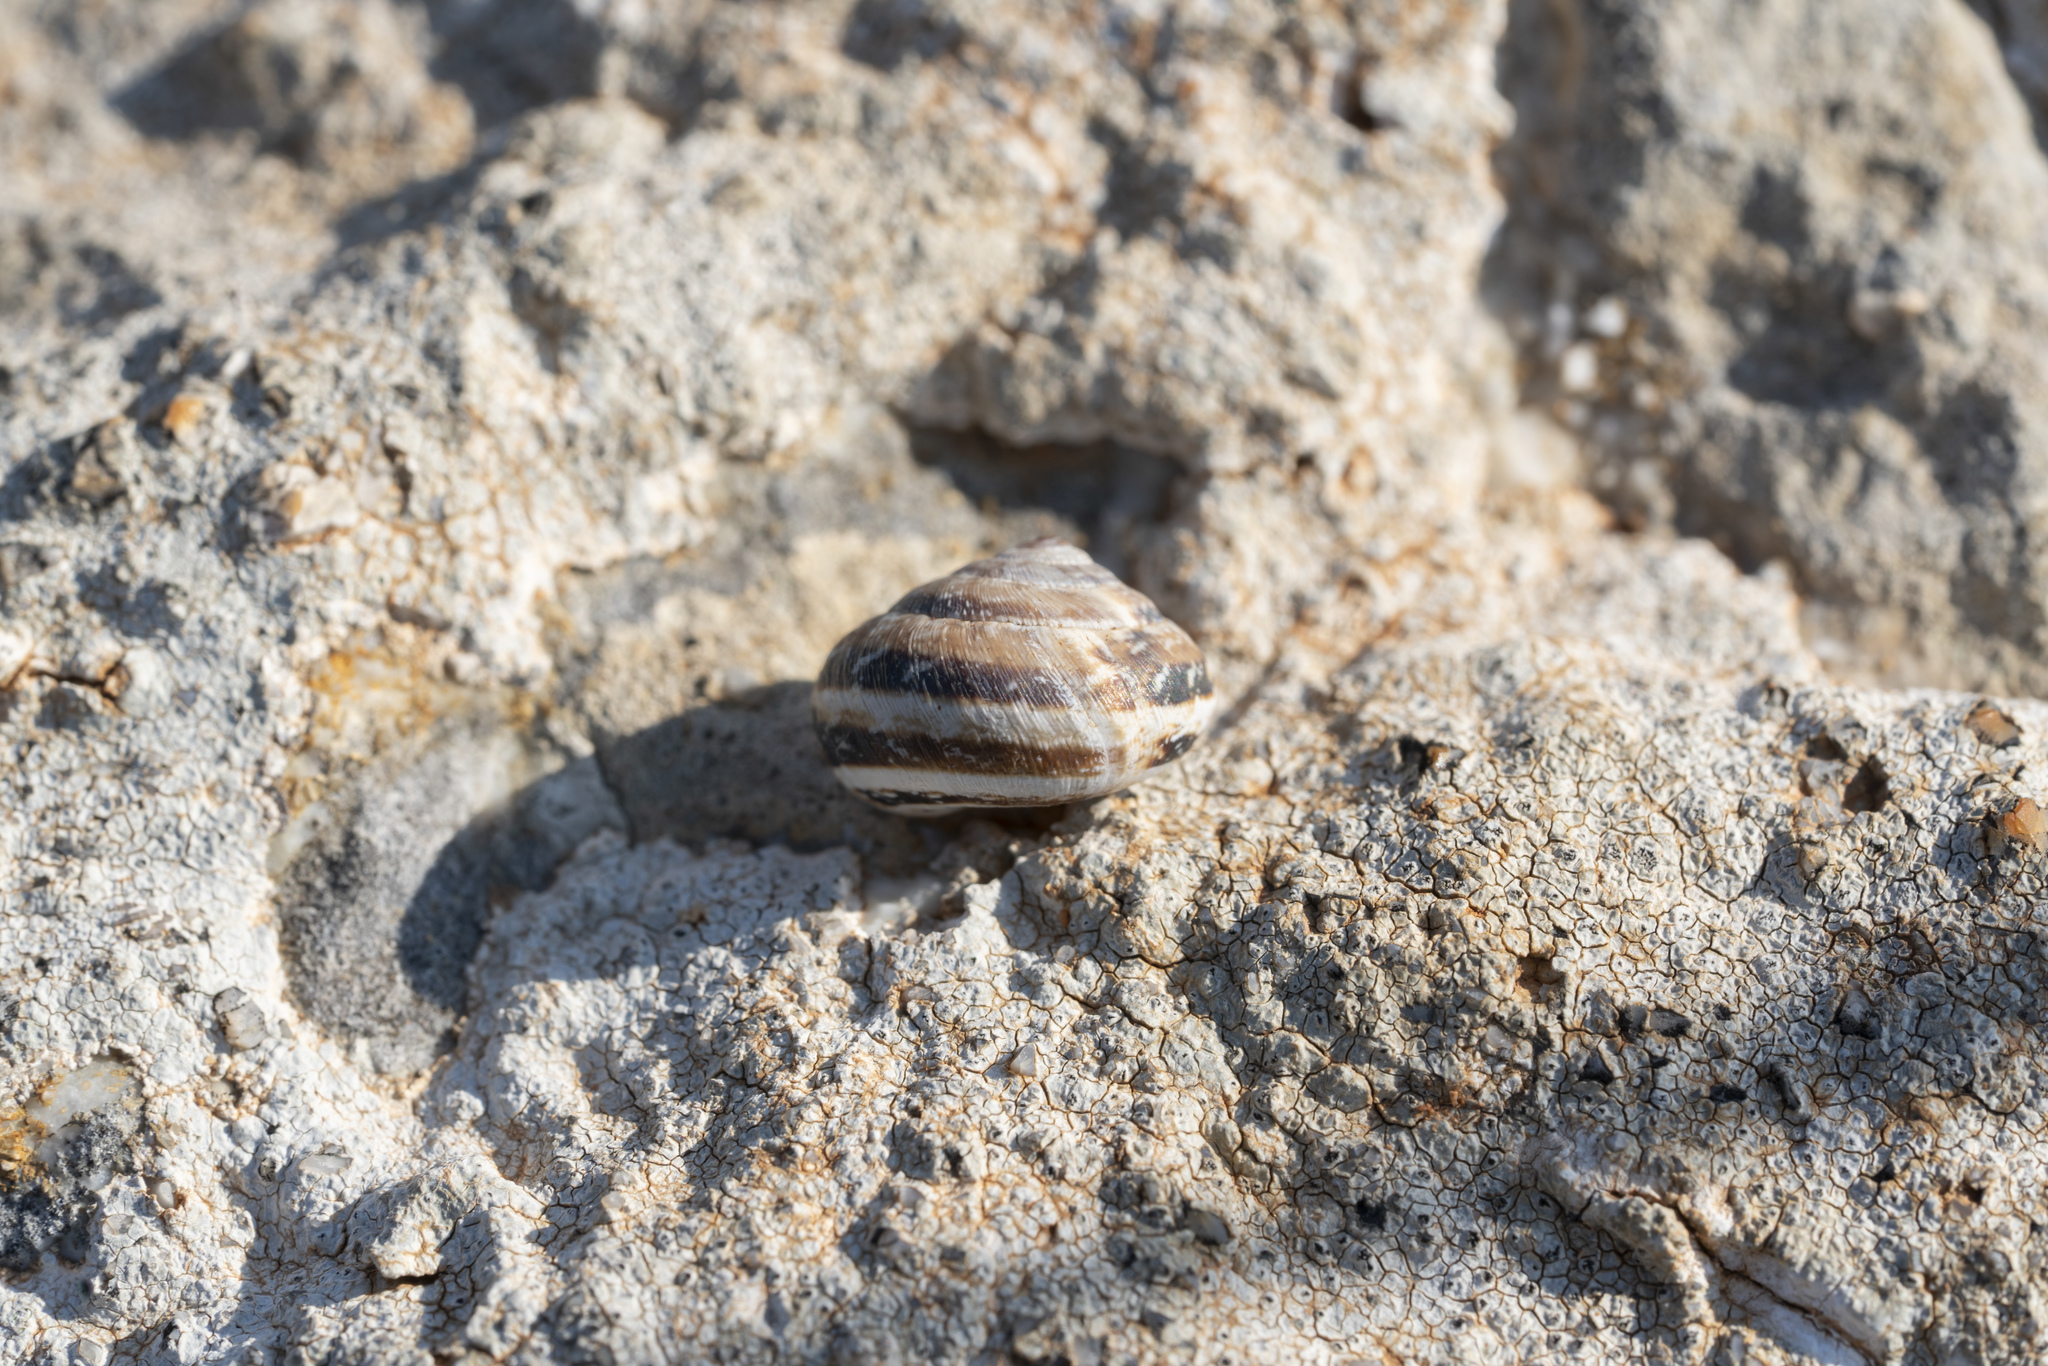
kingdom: Animalia
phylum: Mollusca
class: Gastropoda
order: Stylommatophora
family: Geomitridae
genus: Xerocrassa
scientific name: Xerocrassa cretica
